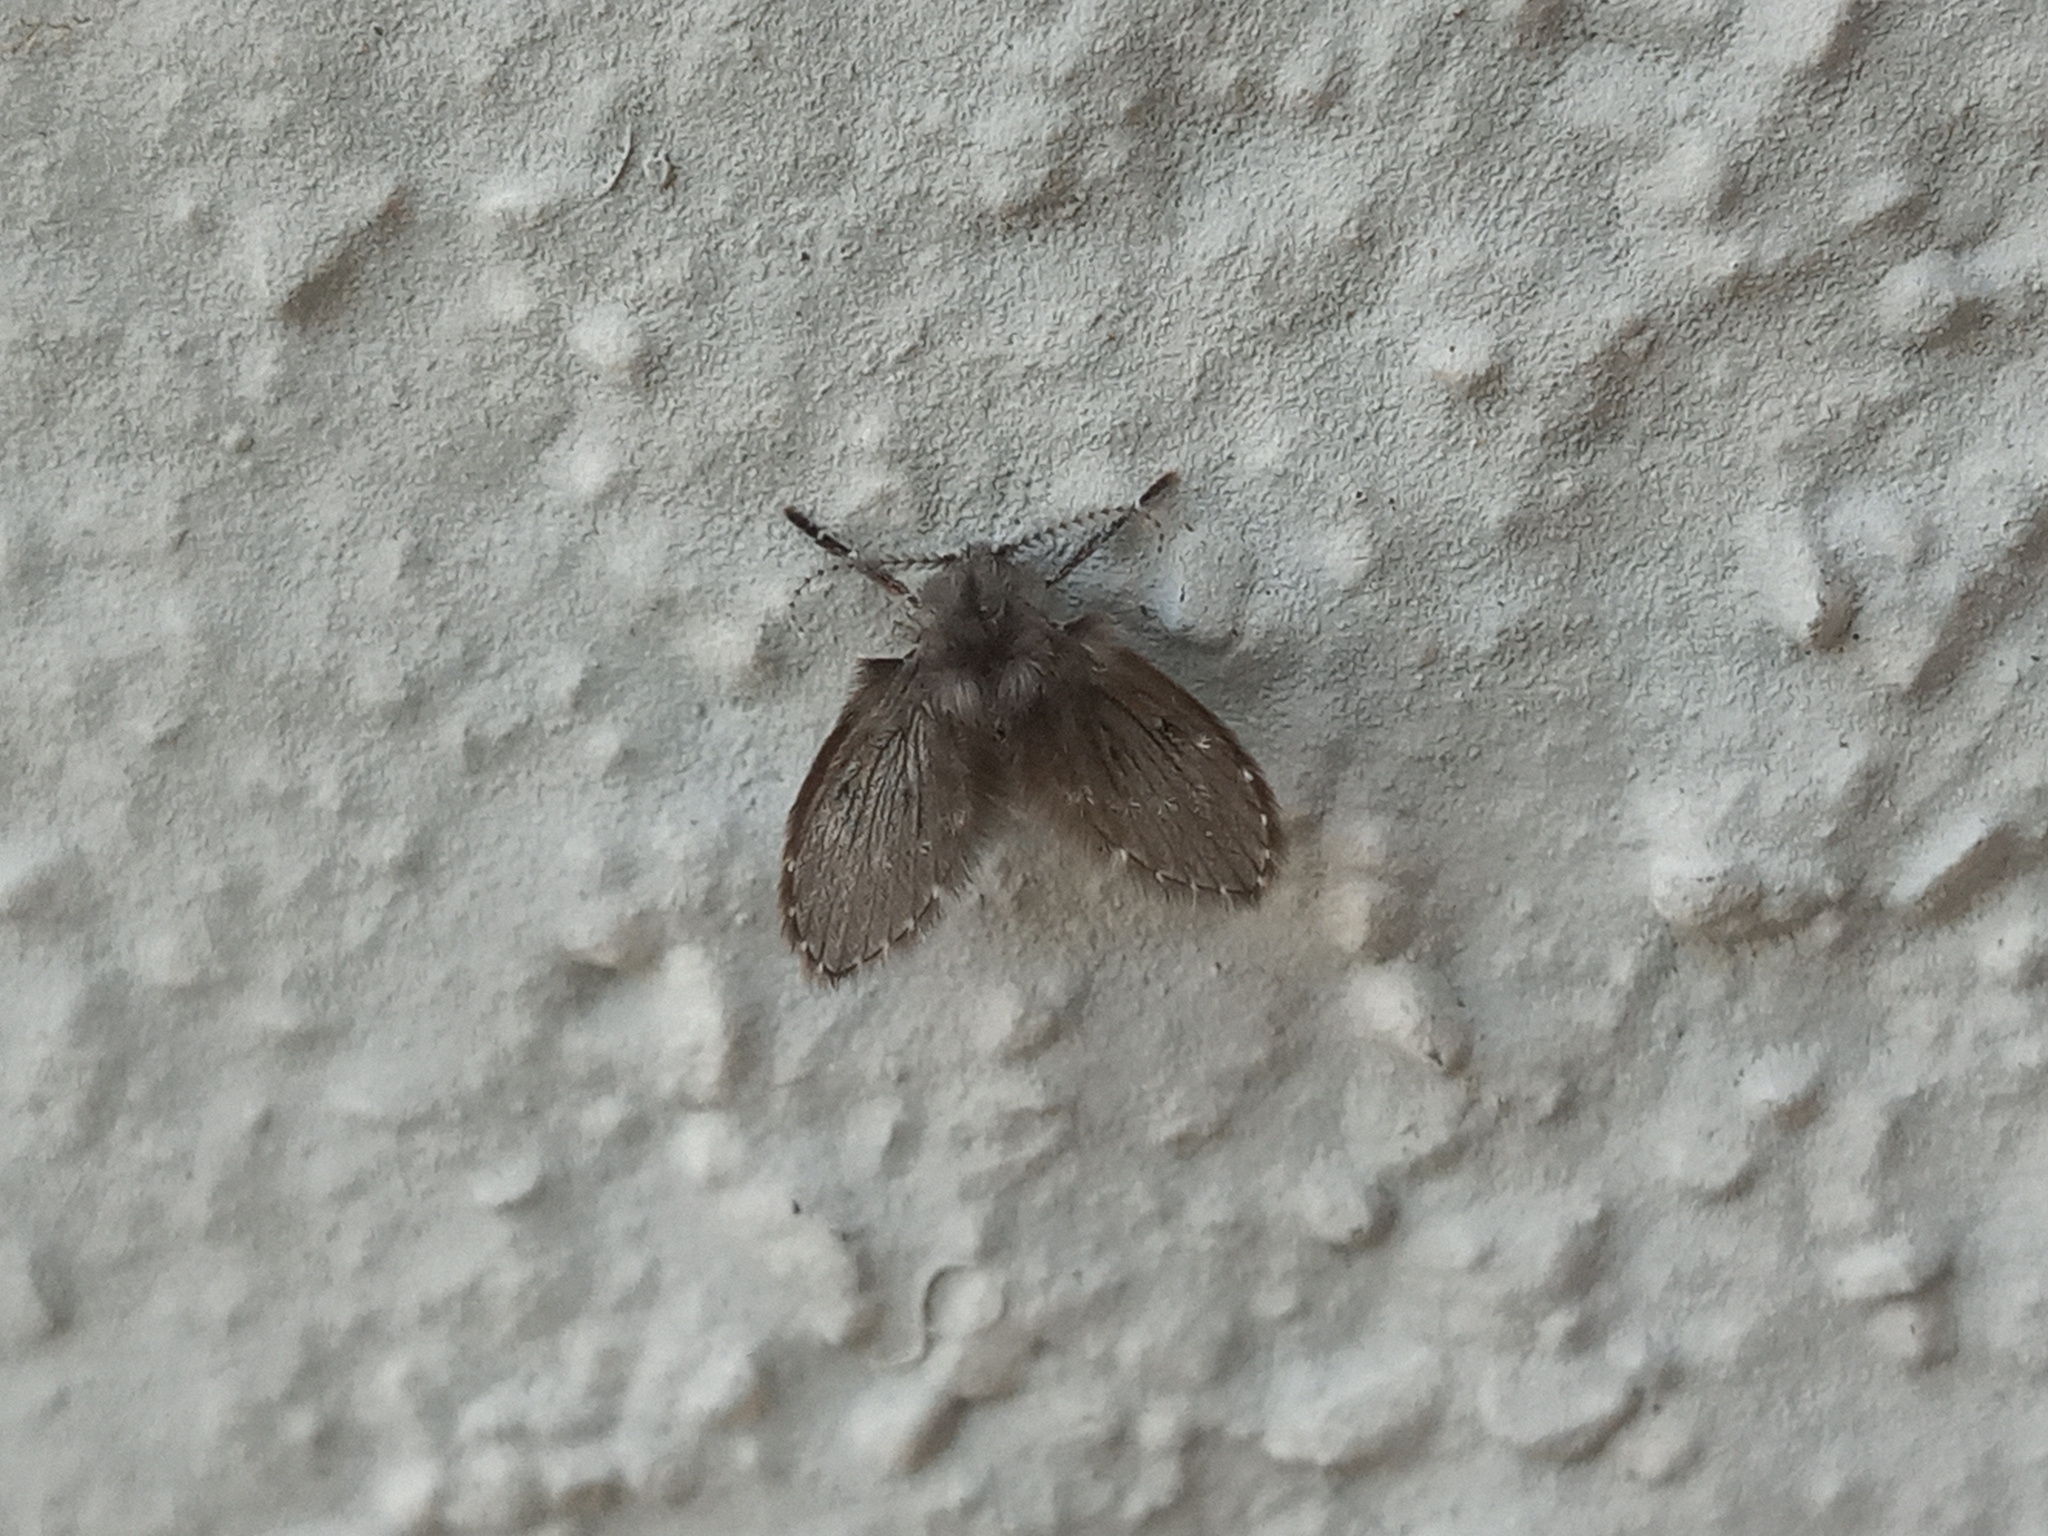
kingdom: Animalia
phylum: Arthropoda
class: Insecta
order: Diptera
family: Psychodidae
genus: Clogmia
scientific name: Clogmia albipunctatus
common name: White-spotted moth fly
